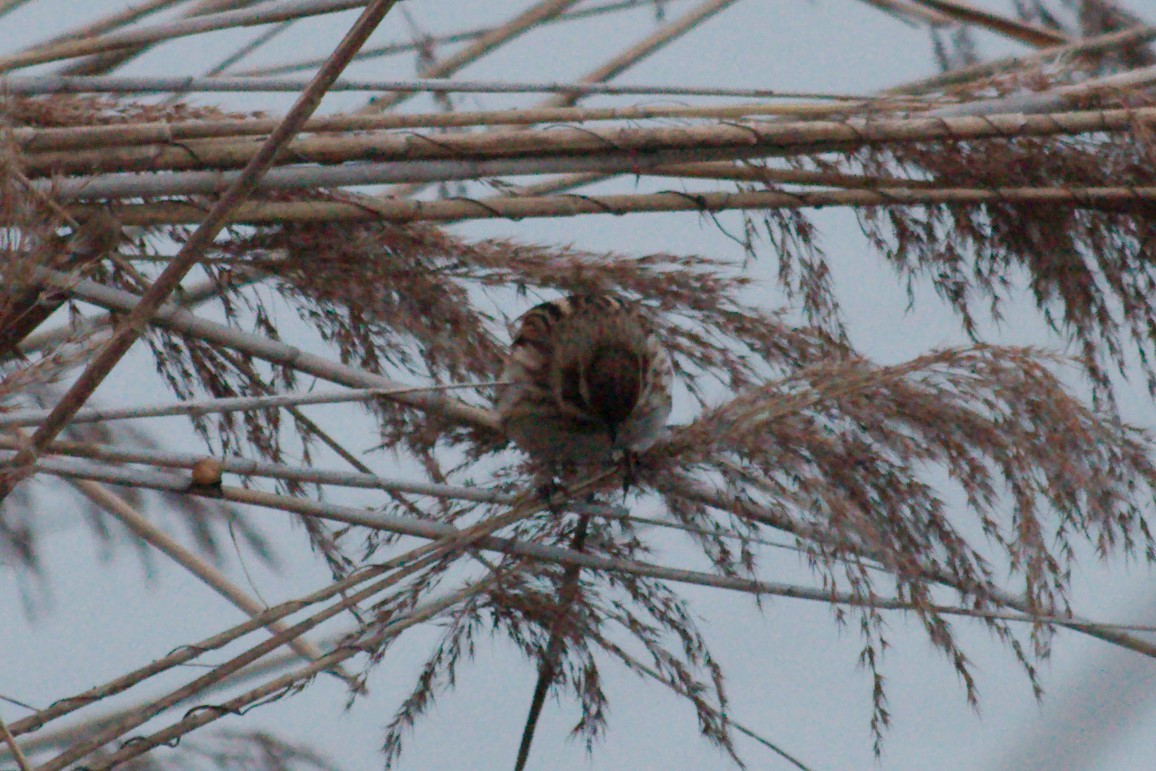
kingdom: Animalia
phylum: Chordata
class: Aves
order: Passeriformes
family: Emberizidae
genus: Emberiza
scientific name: Emberiza schoeniclus
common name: Reed bunting
